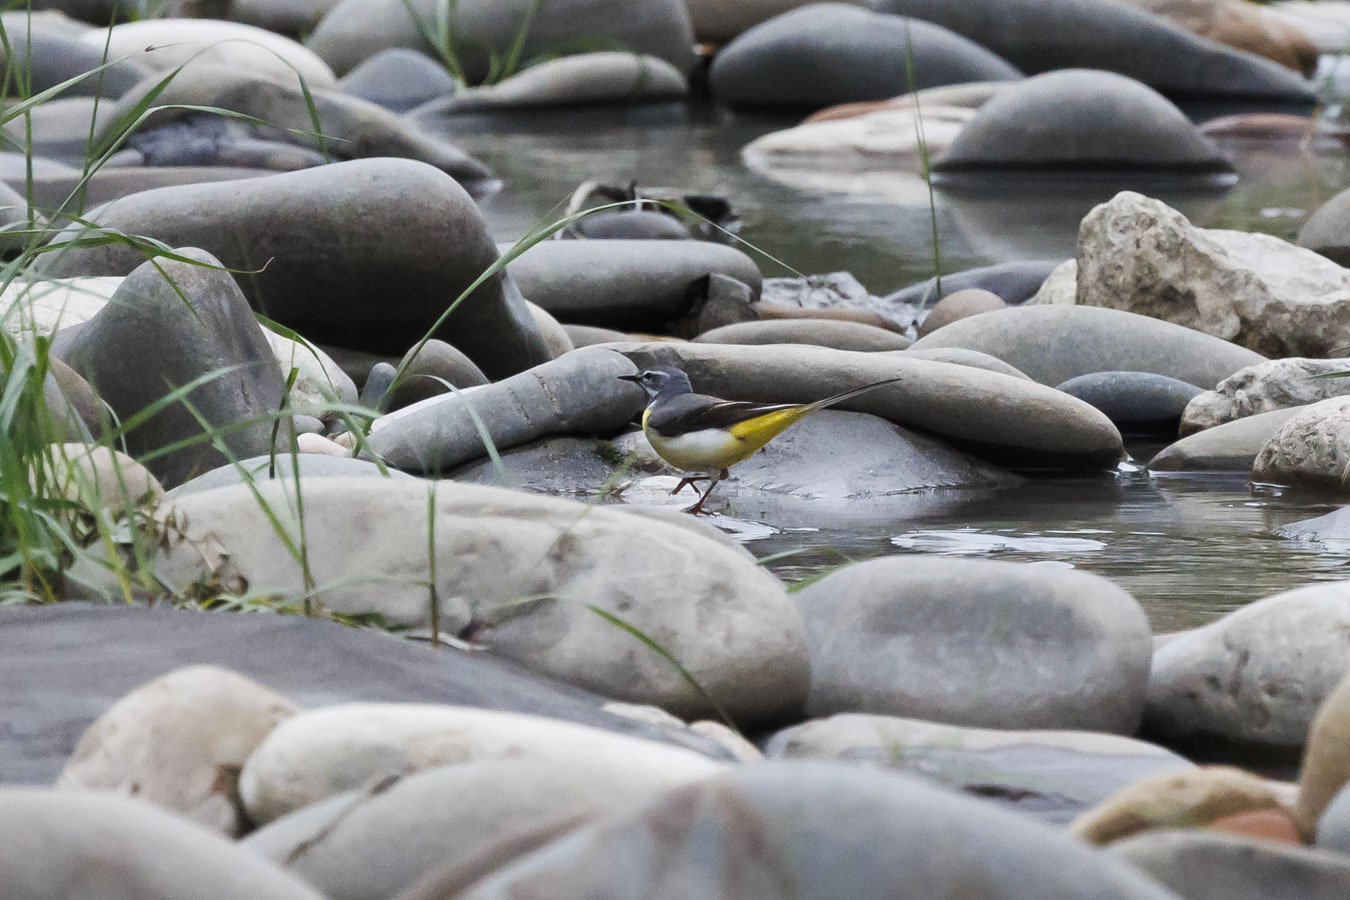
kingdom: Animalia
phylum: Chordata
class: Aves
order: Passeriformes
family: Motacillidae
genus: Motacilla
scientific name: Motacilla cinerea
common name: Grey wagtail
